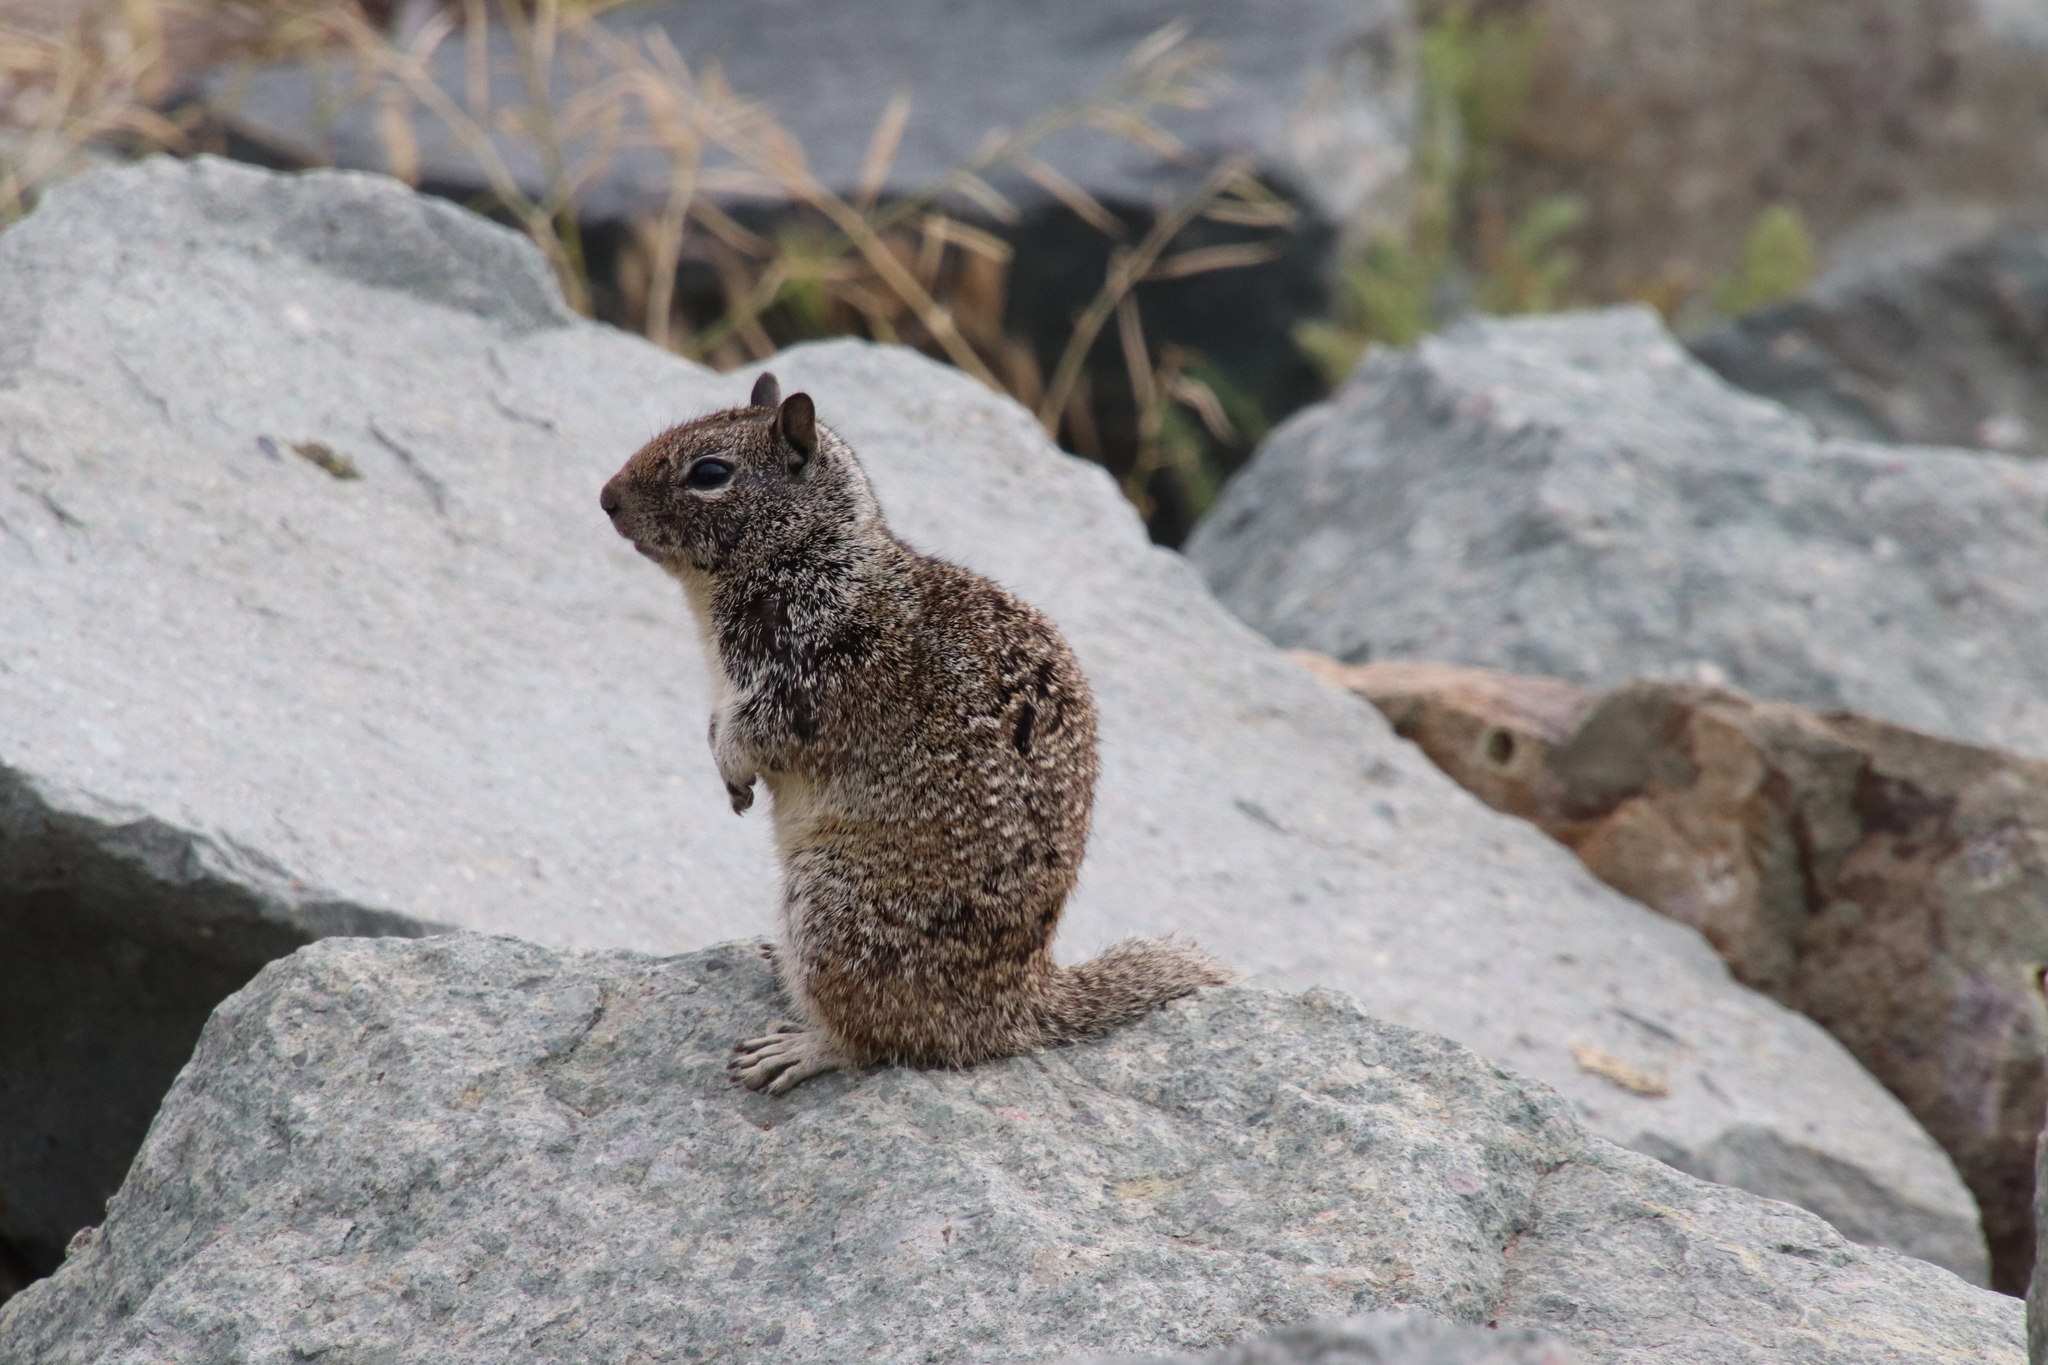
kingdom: Animalia
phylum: Chordata
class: Mammalia
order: Rodentia
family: Sciuridae
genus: Otospermophilus
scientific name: Otospermophilus beecheyi
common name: California ground squirrel
